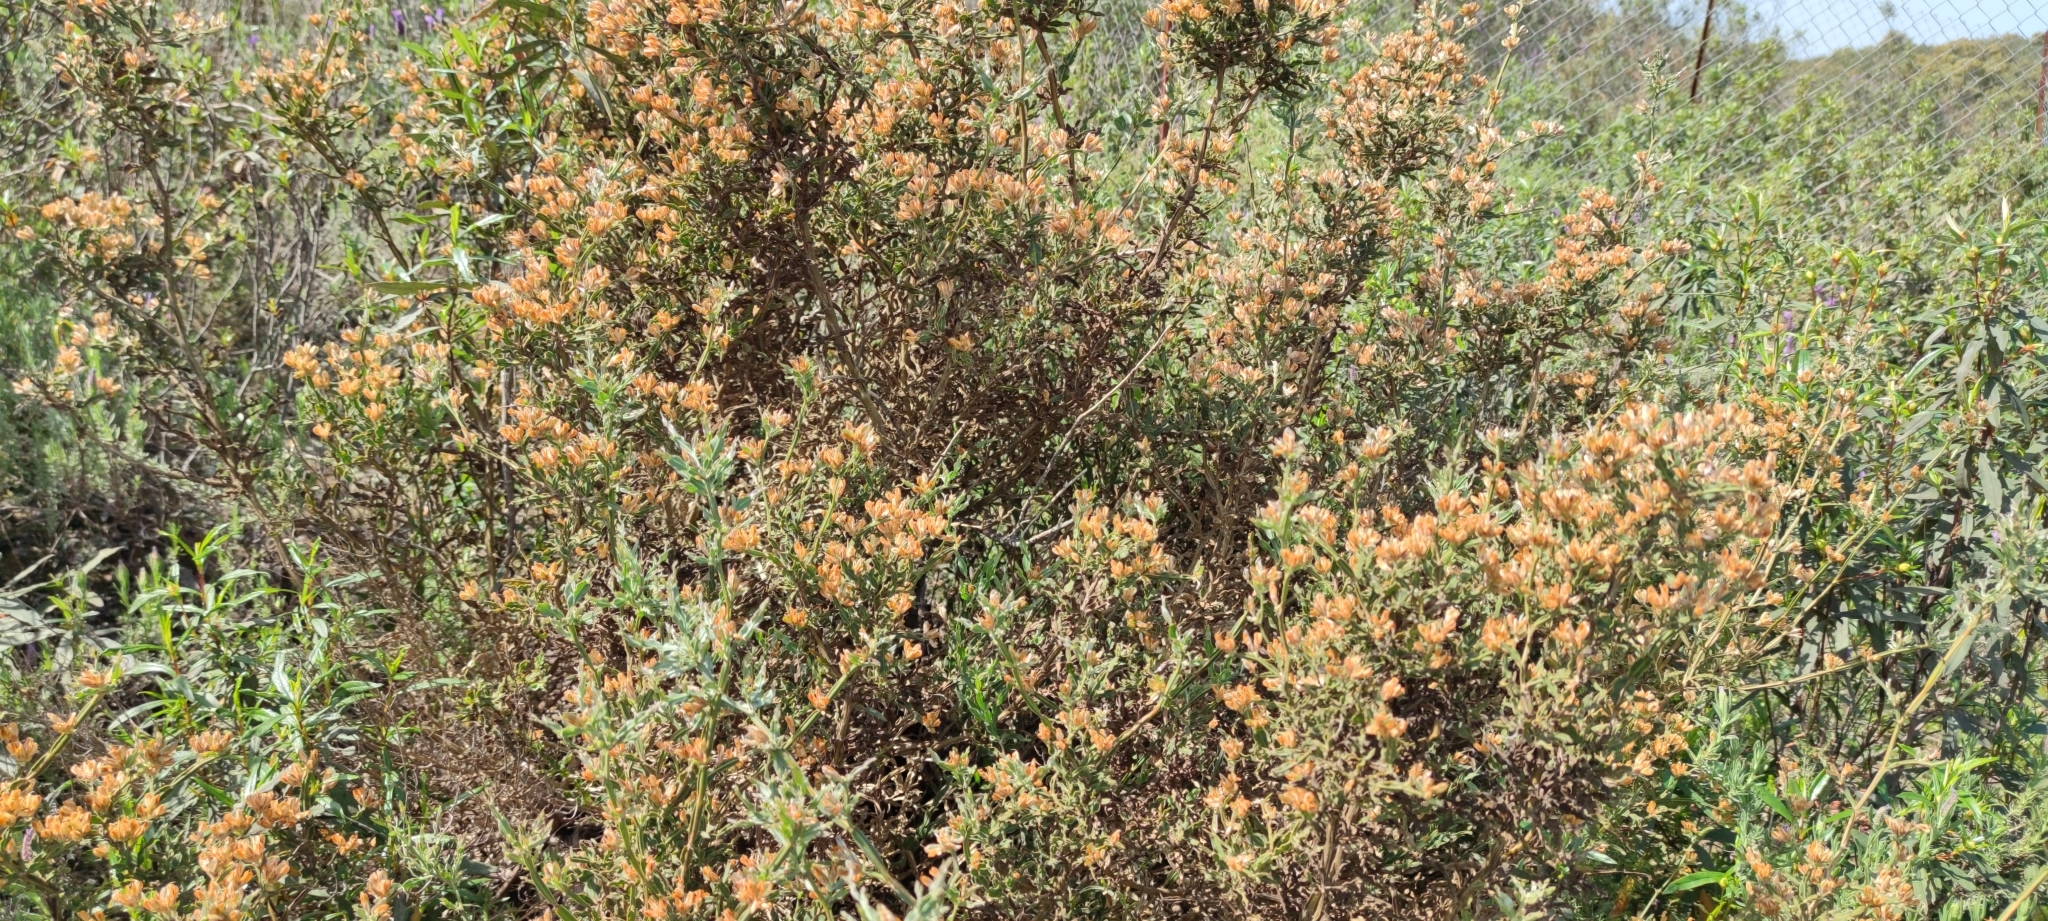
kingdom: Plantae
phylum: Tracheophyta
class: Magnoliopsida
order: Fabales
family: Fabaceae
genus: Genista
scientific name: Genista tridentata
